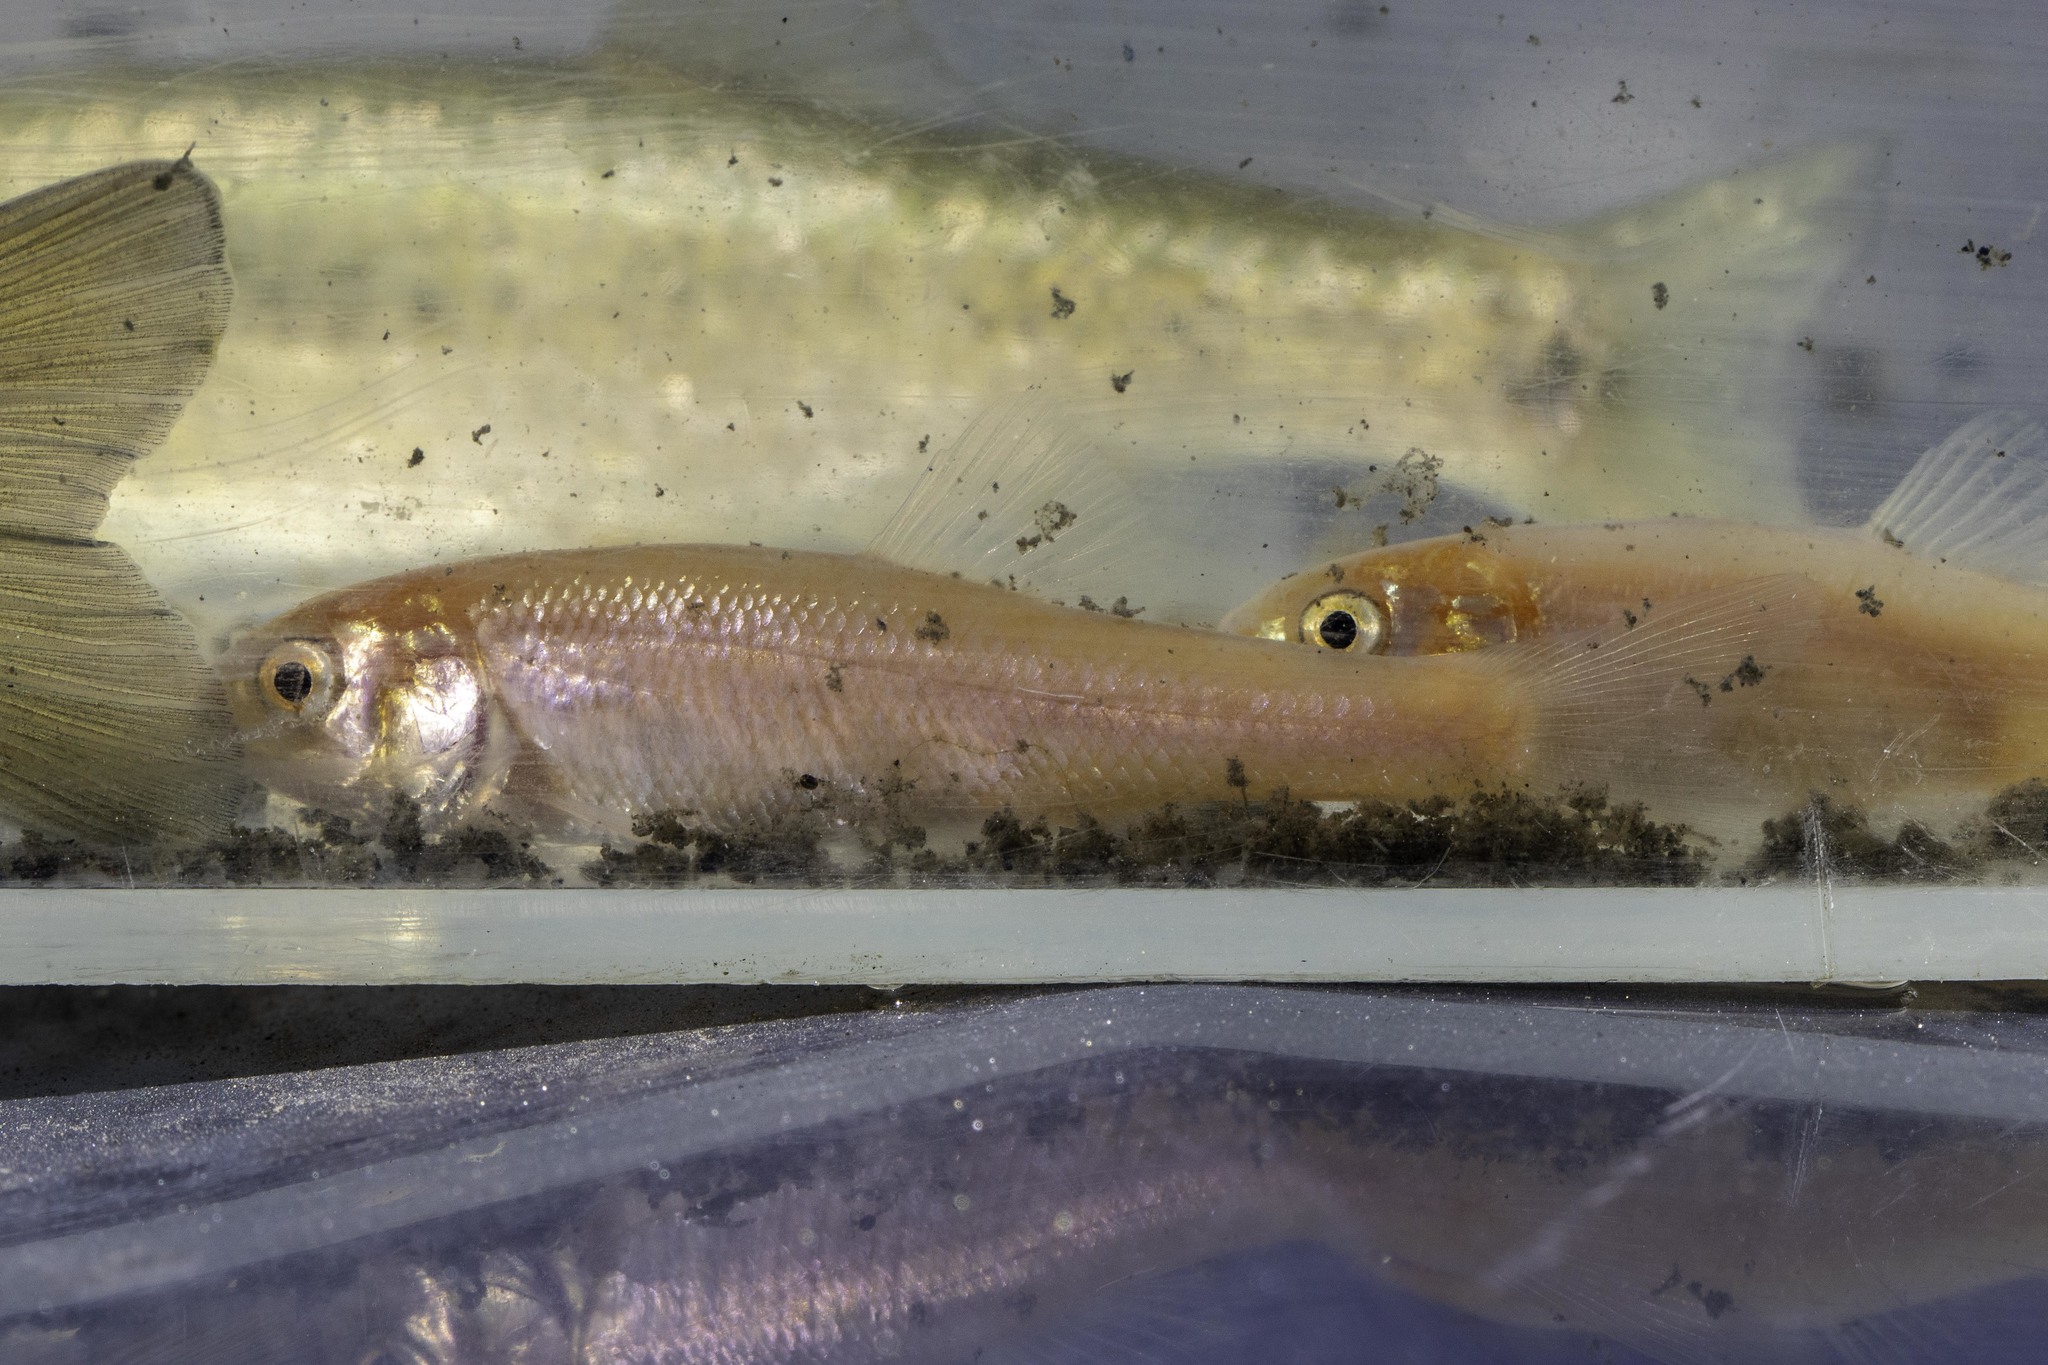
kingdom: Animalia
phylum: Chordata
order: Cypriniformes
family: Cyprinidae
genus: Pimephales
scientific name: Pimephales promelas
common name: Fathead minnow
